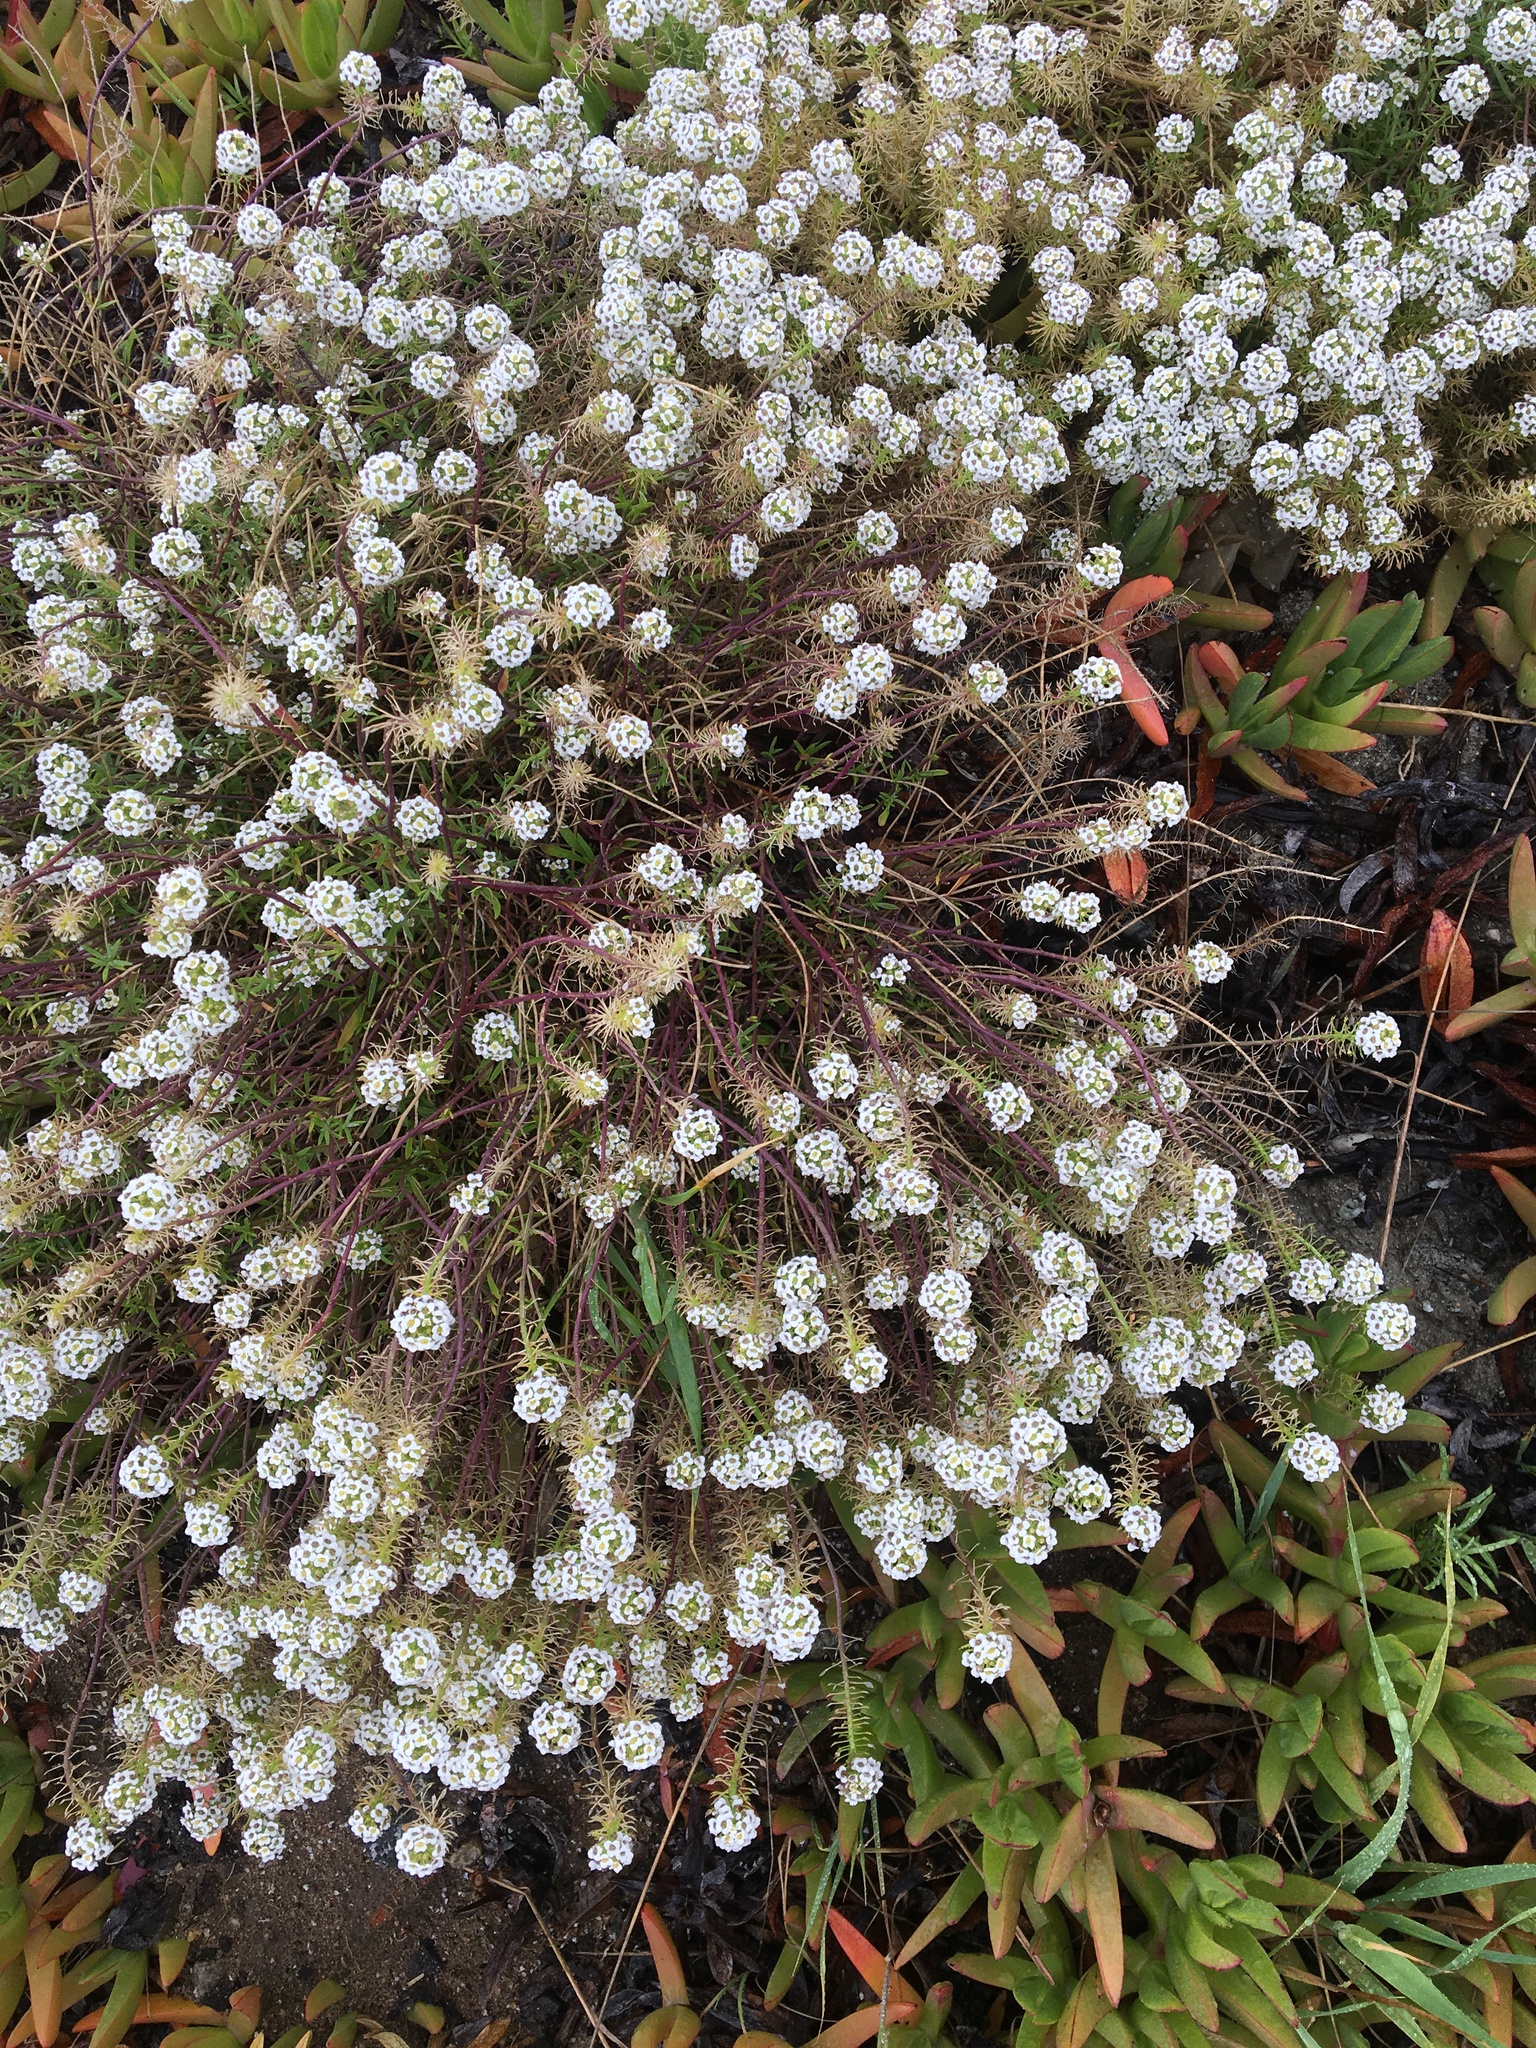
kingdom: Plantae
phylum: Tracheophyta
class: Magnoliopsida
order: Brassicales
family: Brassicaceae
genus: Lobularia
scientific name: Lobularia maritima
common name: Sweet alison
